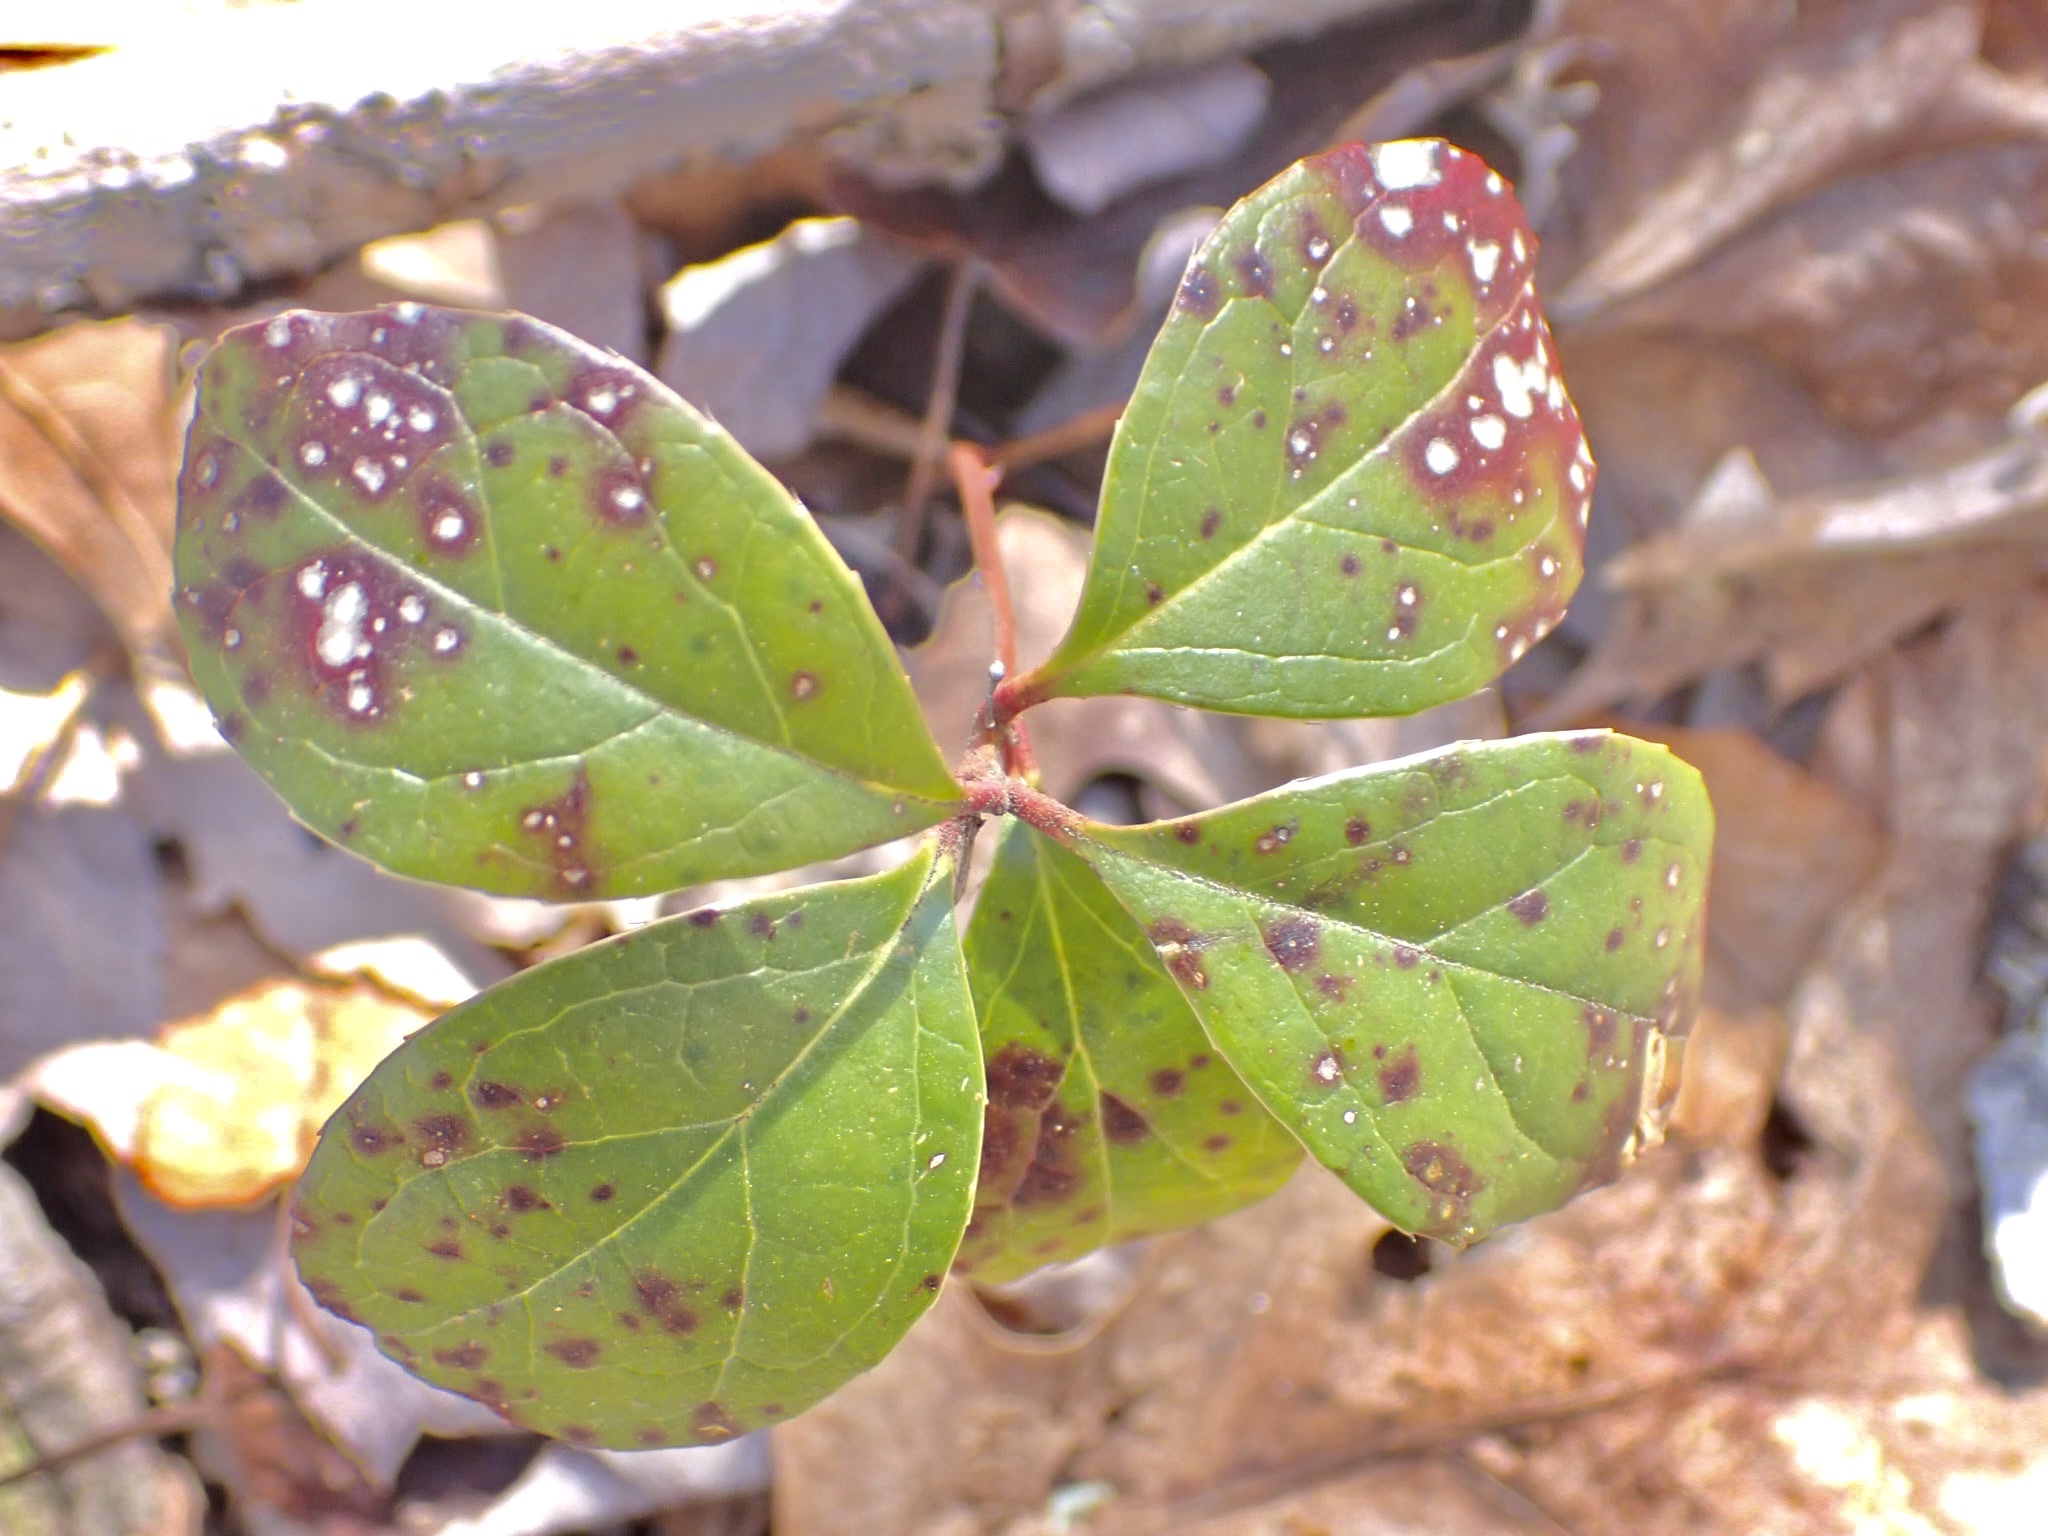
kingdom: Plantae
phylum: Tracheophyta
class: Magnoliopsida
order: Ericales
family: Ericaceae
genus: Gaultheria
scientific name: Gaultheria procumbens
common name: Checkerberry
